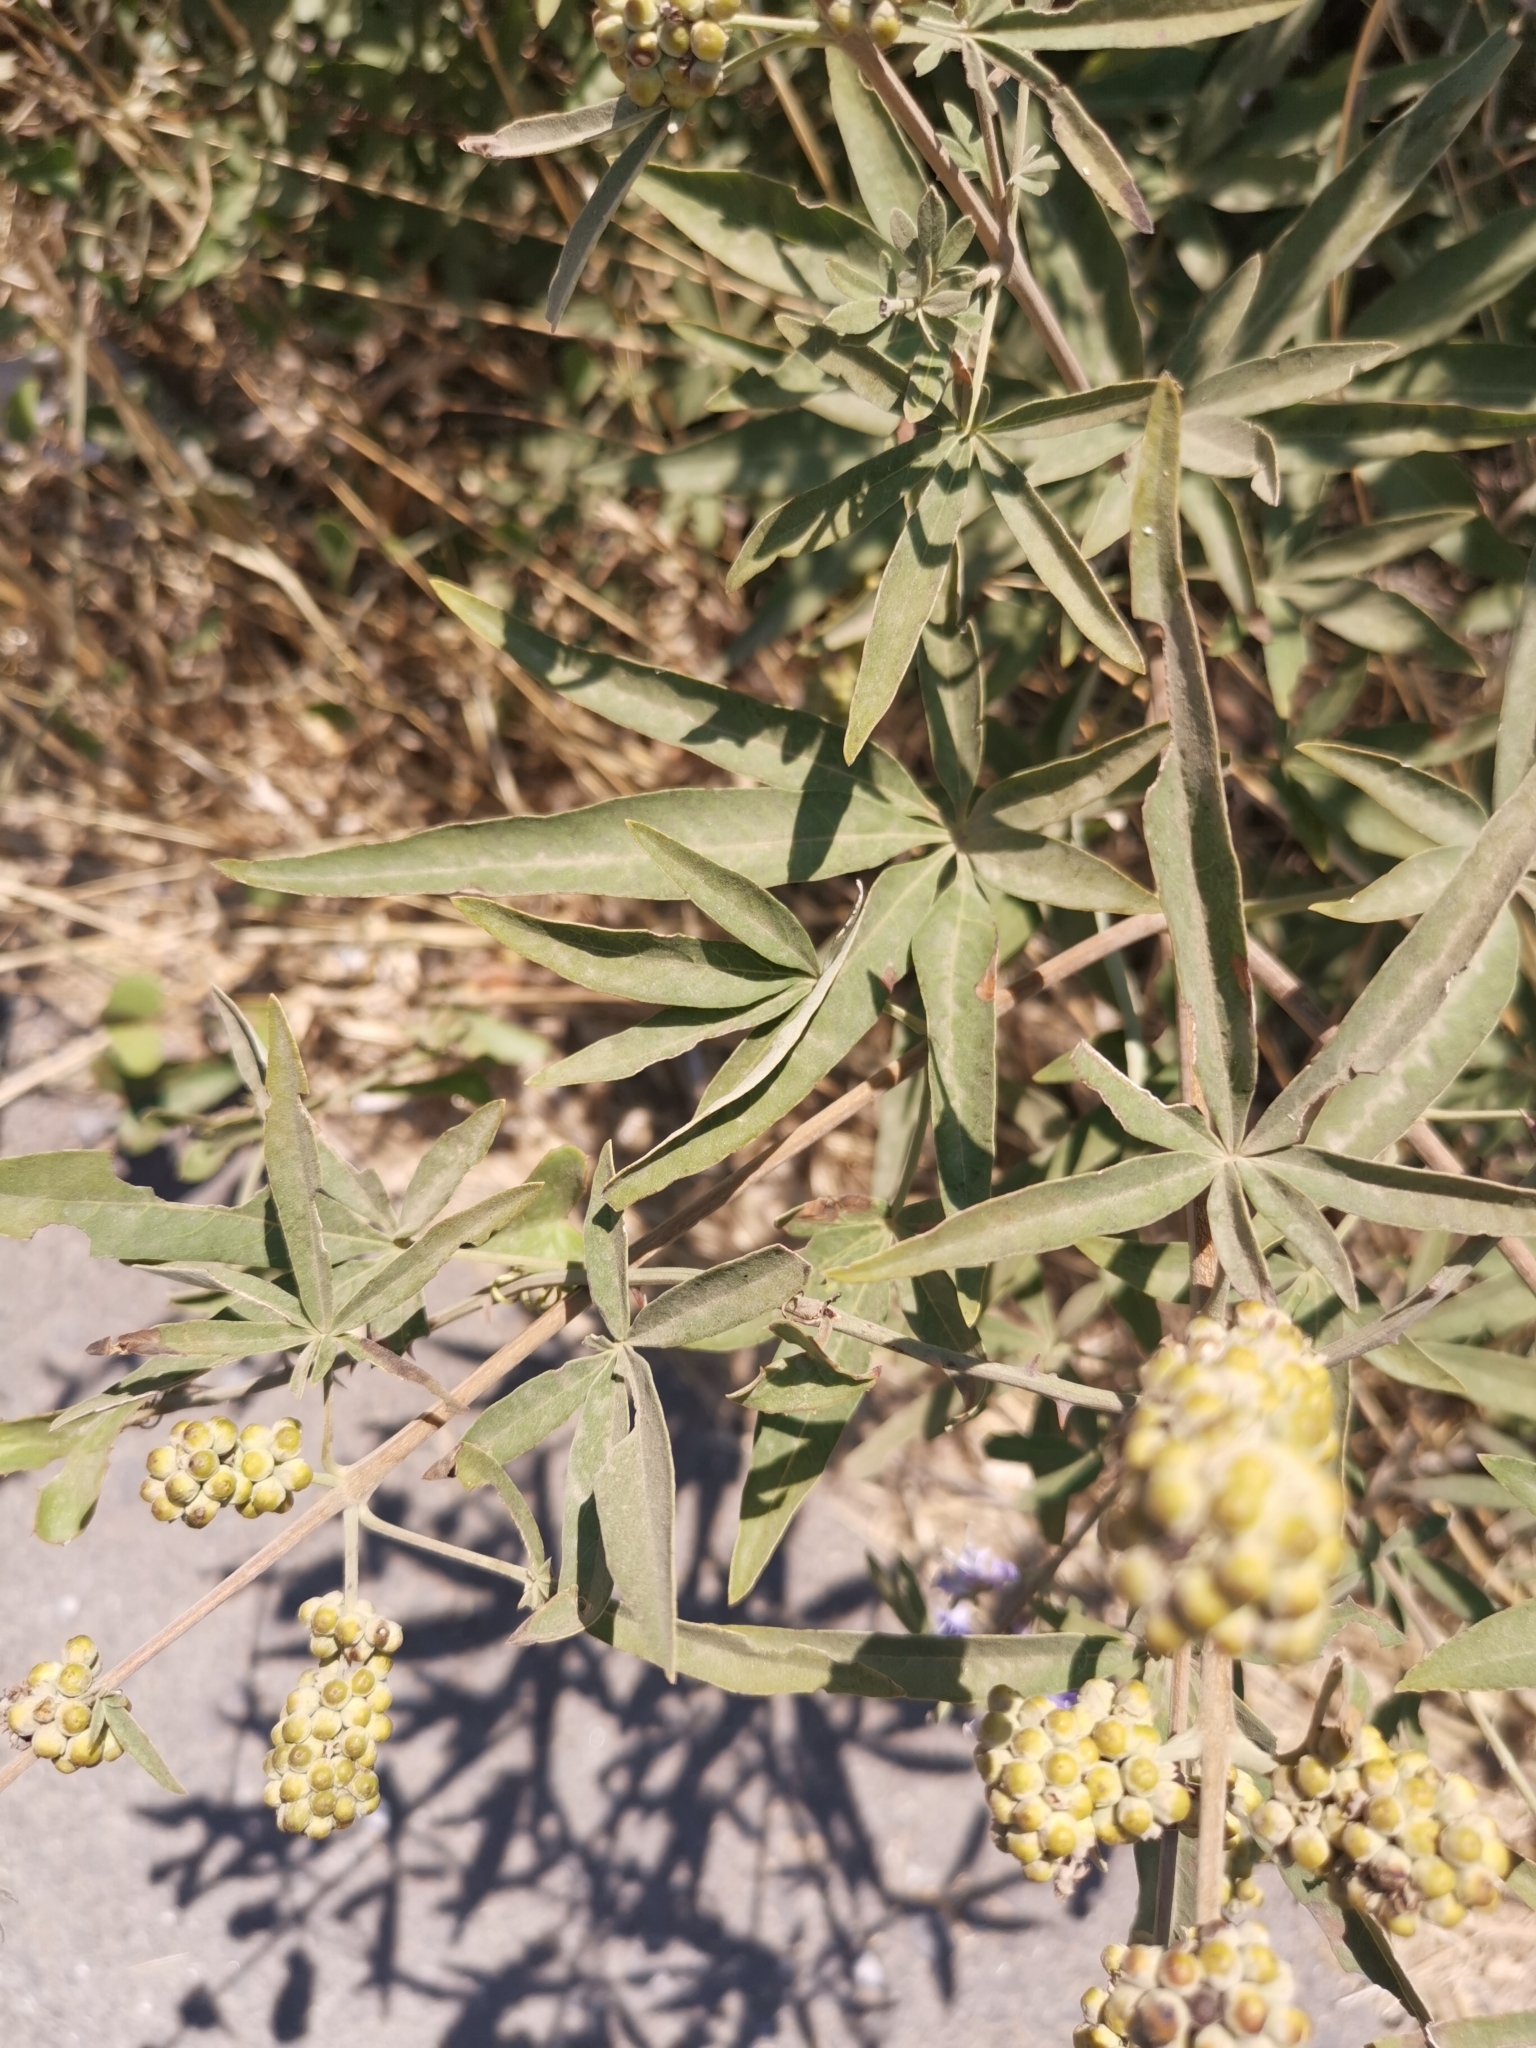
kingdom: Plantae
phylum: Tracheophyta
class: Magnoliopsida
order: Lamiales
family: Lamiaceae
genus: Vitex
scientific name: Vitex agnus-castus
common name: Chasteberry
